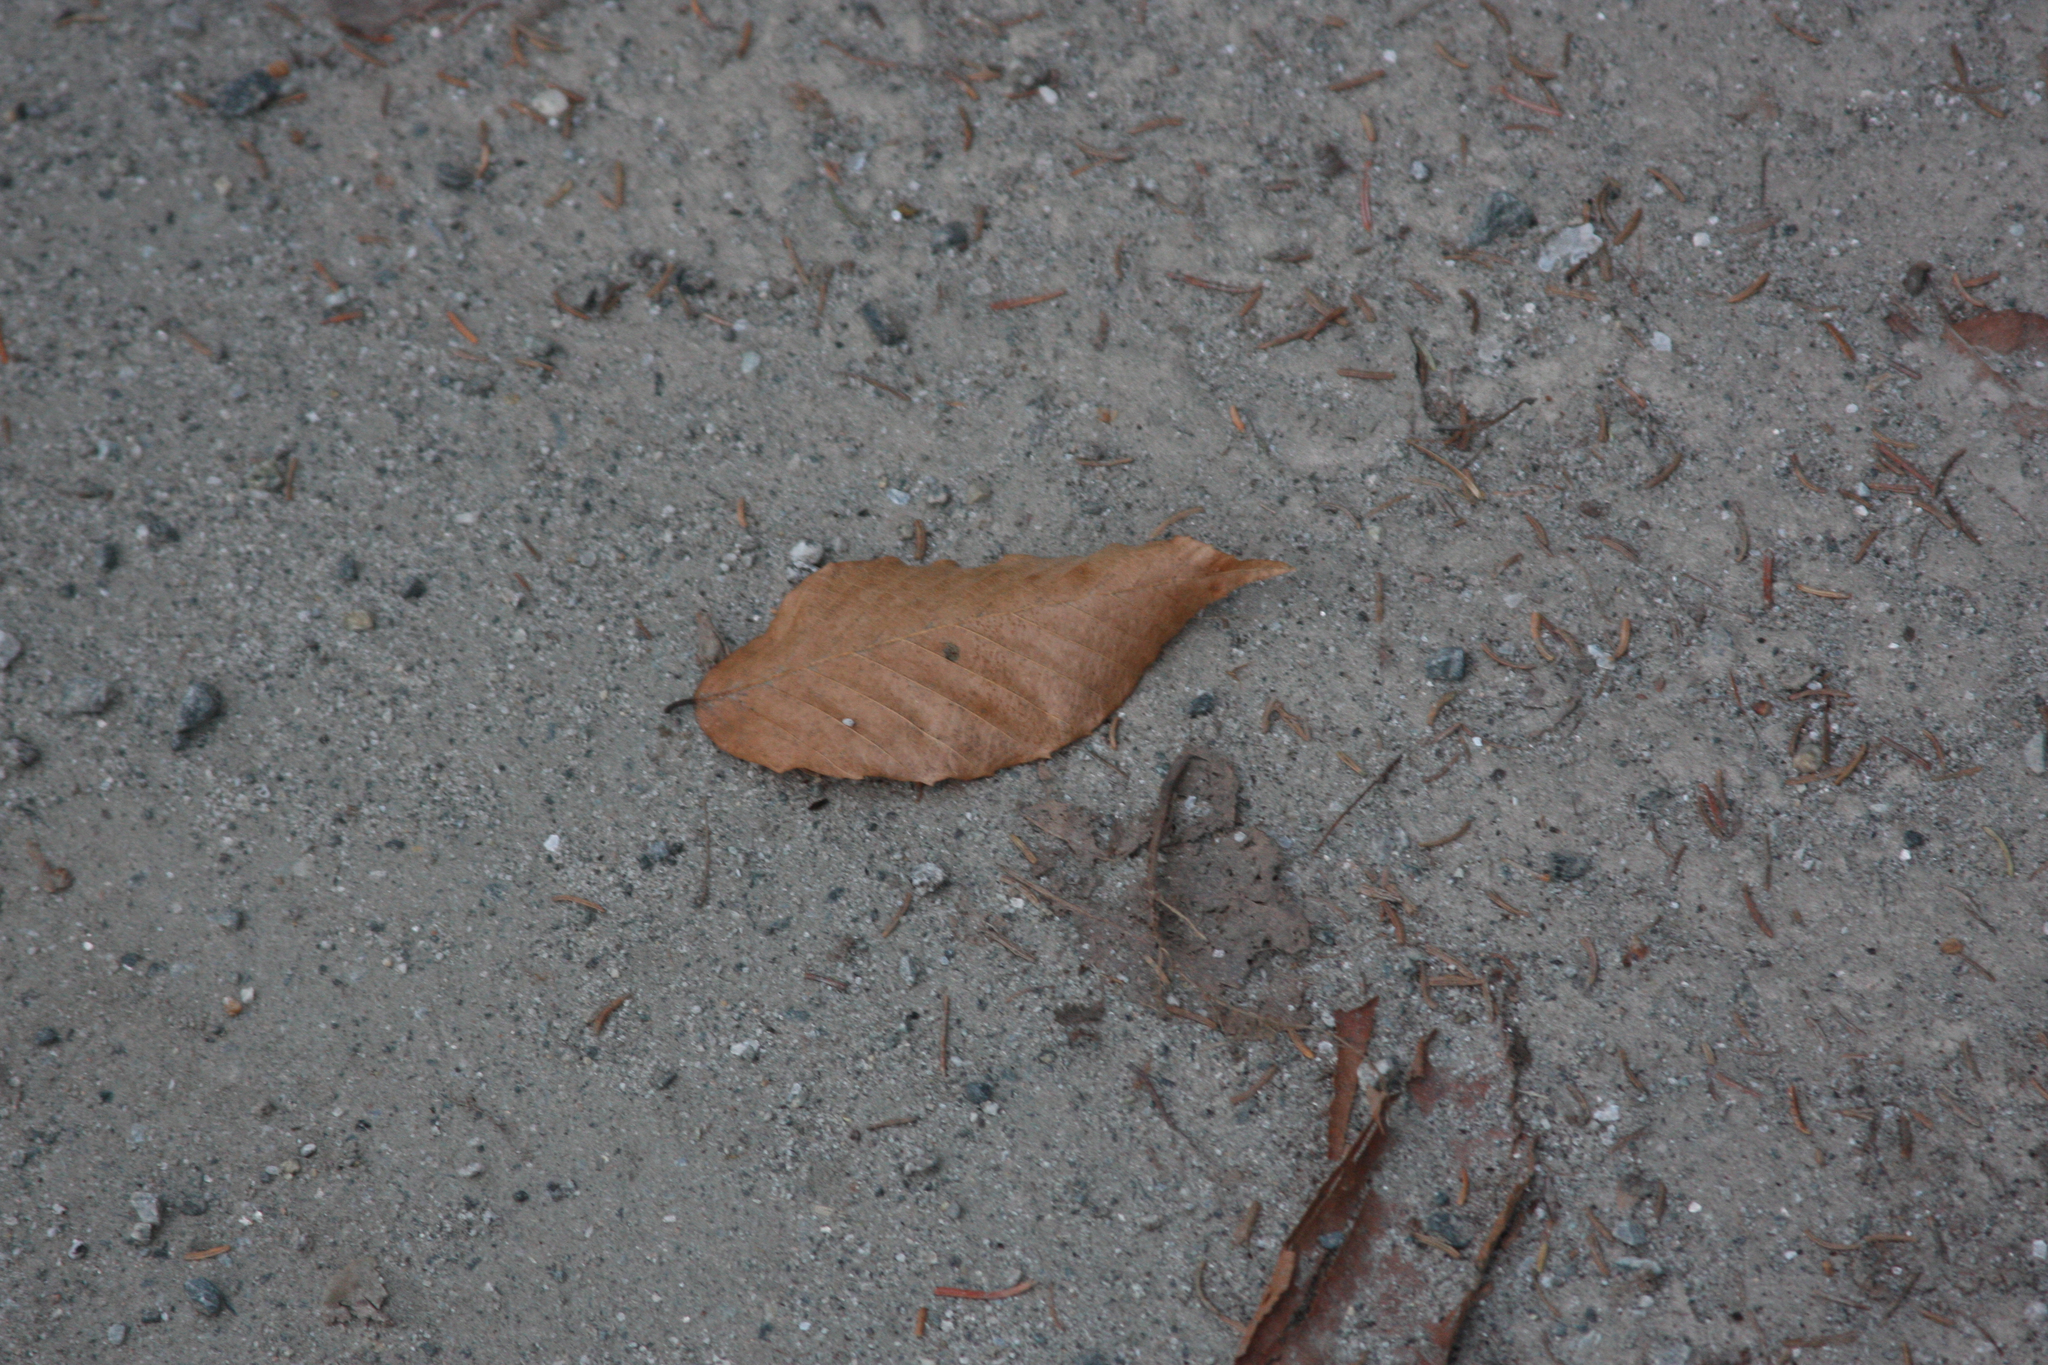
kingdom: Plantae
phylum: Tracheophyta
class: Magnoliopsida
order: Fagales
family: Fagaceae
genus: Fagus
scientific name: Fagus grandifolia
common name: American beech
